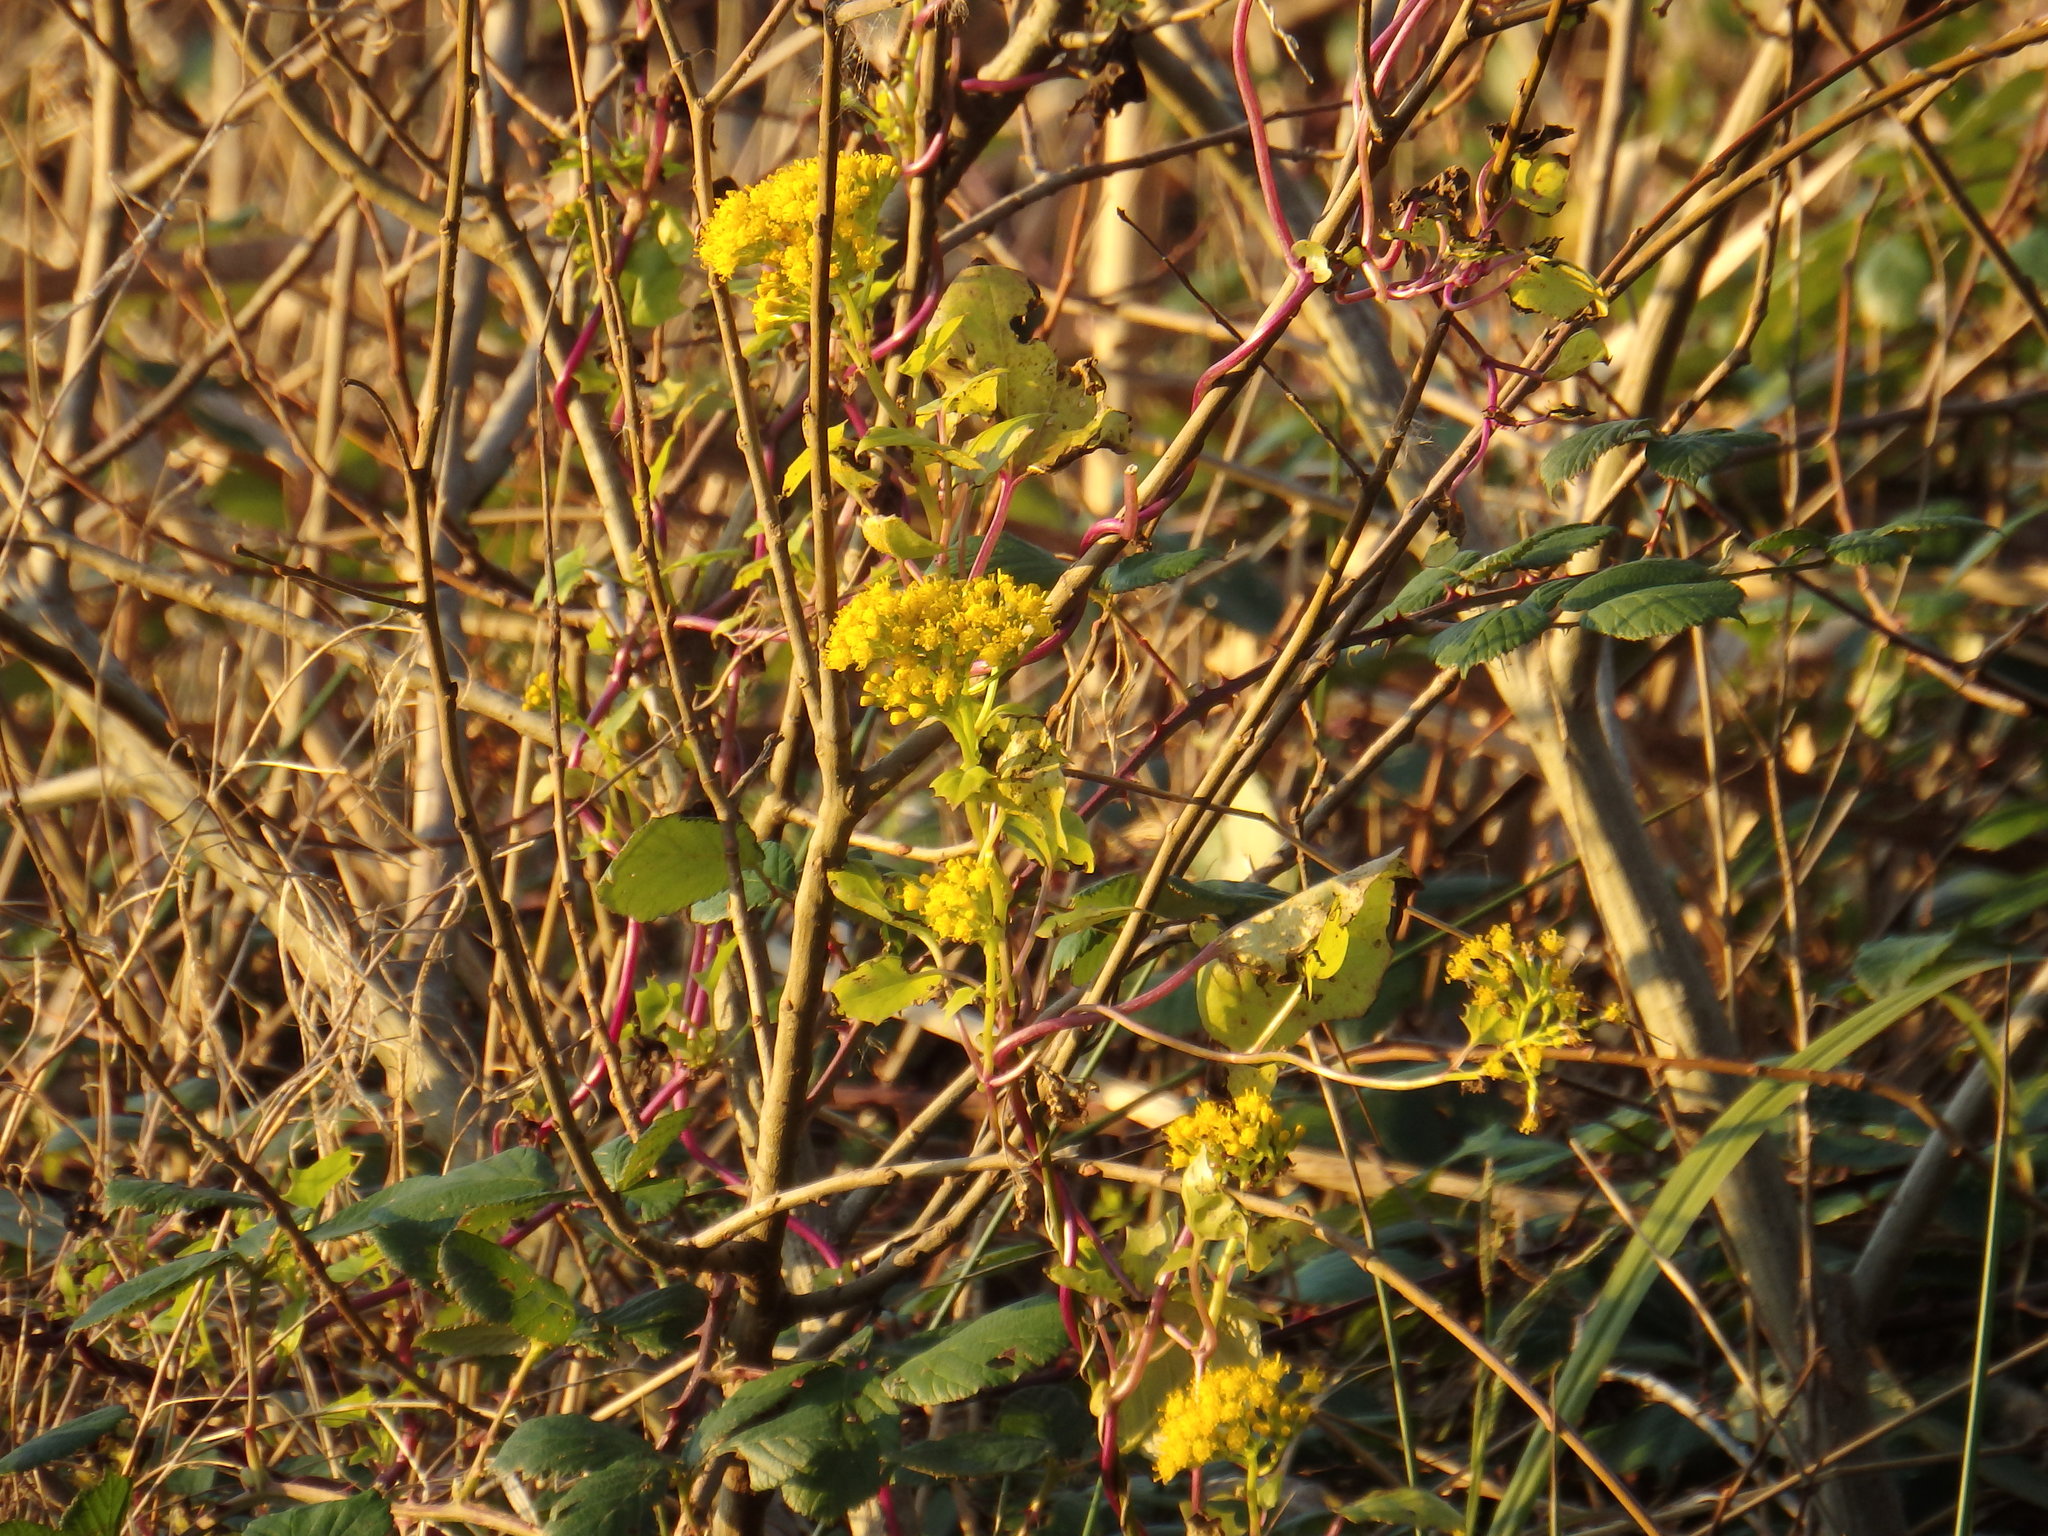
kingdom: Plantae
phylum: Tracheophyta
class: Magnoliopsida
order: Asterales
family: Asteraceae
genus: Delairea
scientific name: Delairea odorata
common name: Cape-ivy
